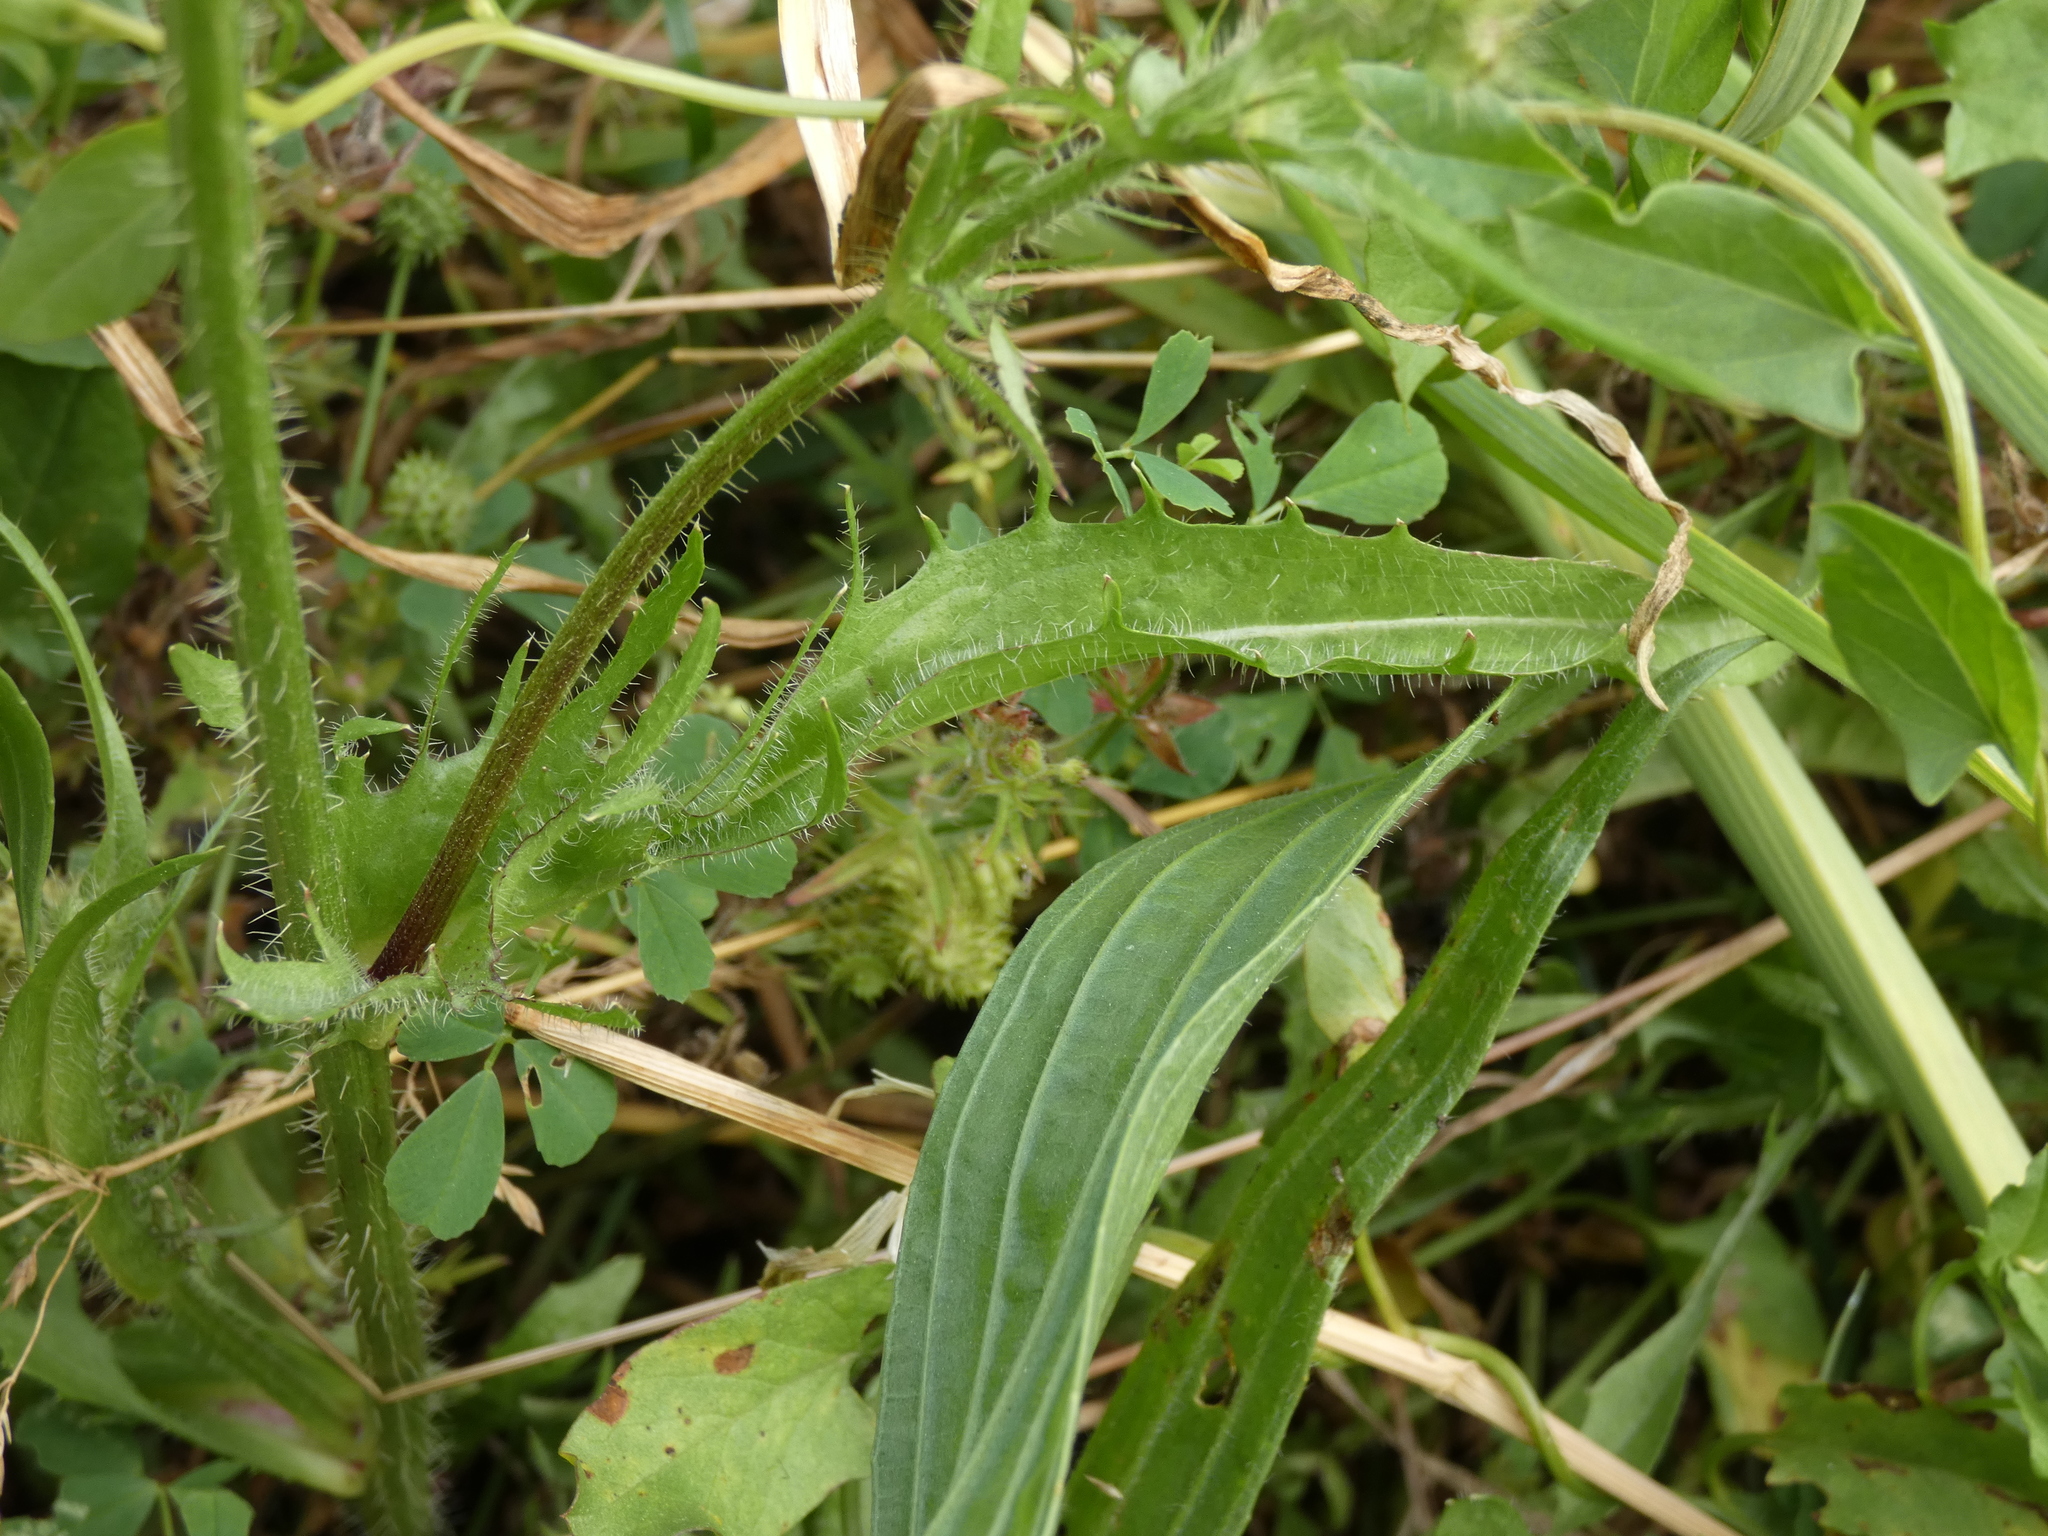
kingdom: Plantae
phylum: Tracheophyta
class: Magnoliopsida
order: Asterales
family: Asteraceae
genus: Crepis
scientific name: Crepis setosa
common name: Bristly hawk's-beard
